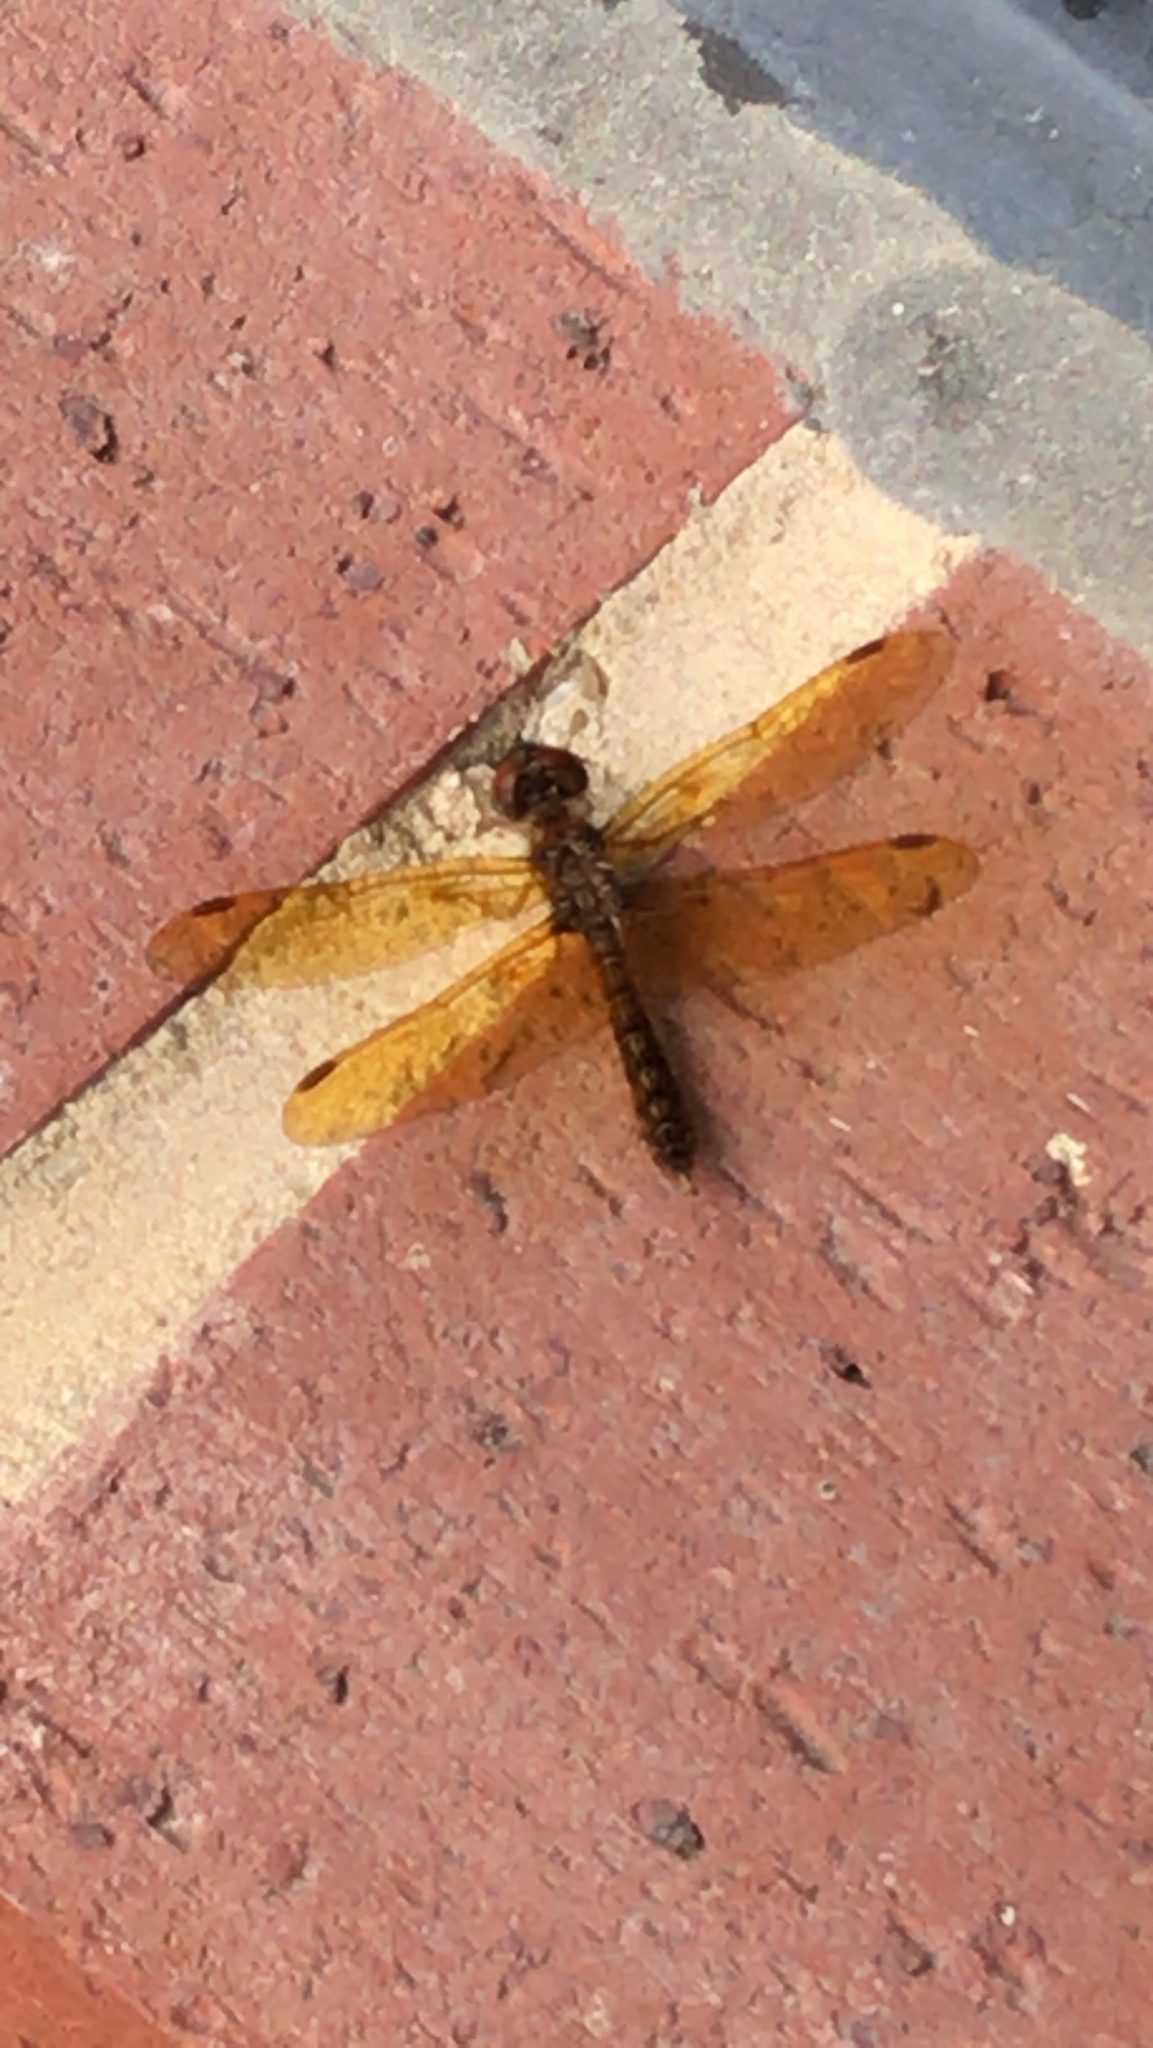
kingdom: Animalia
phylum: Arthropoda
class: Insecta
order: Odonata
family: Libellulidae
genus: Perithemis
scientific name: Perithemis tenera
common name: Eastern amberwing
